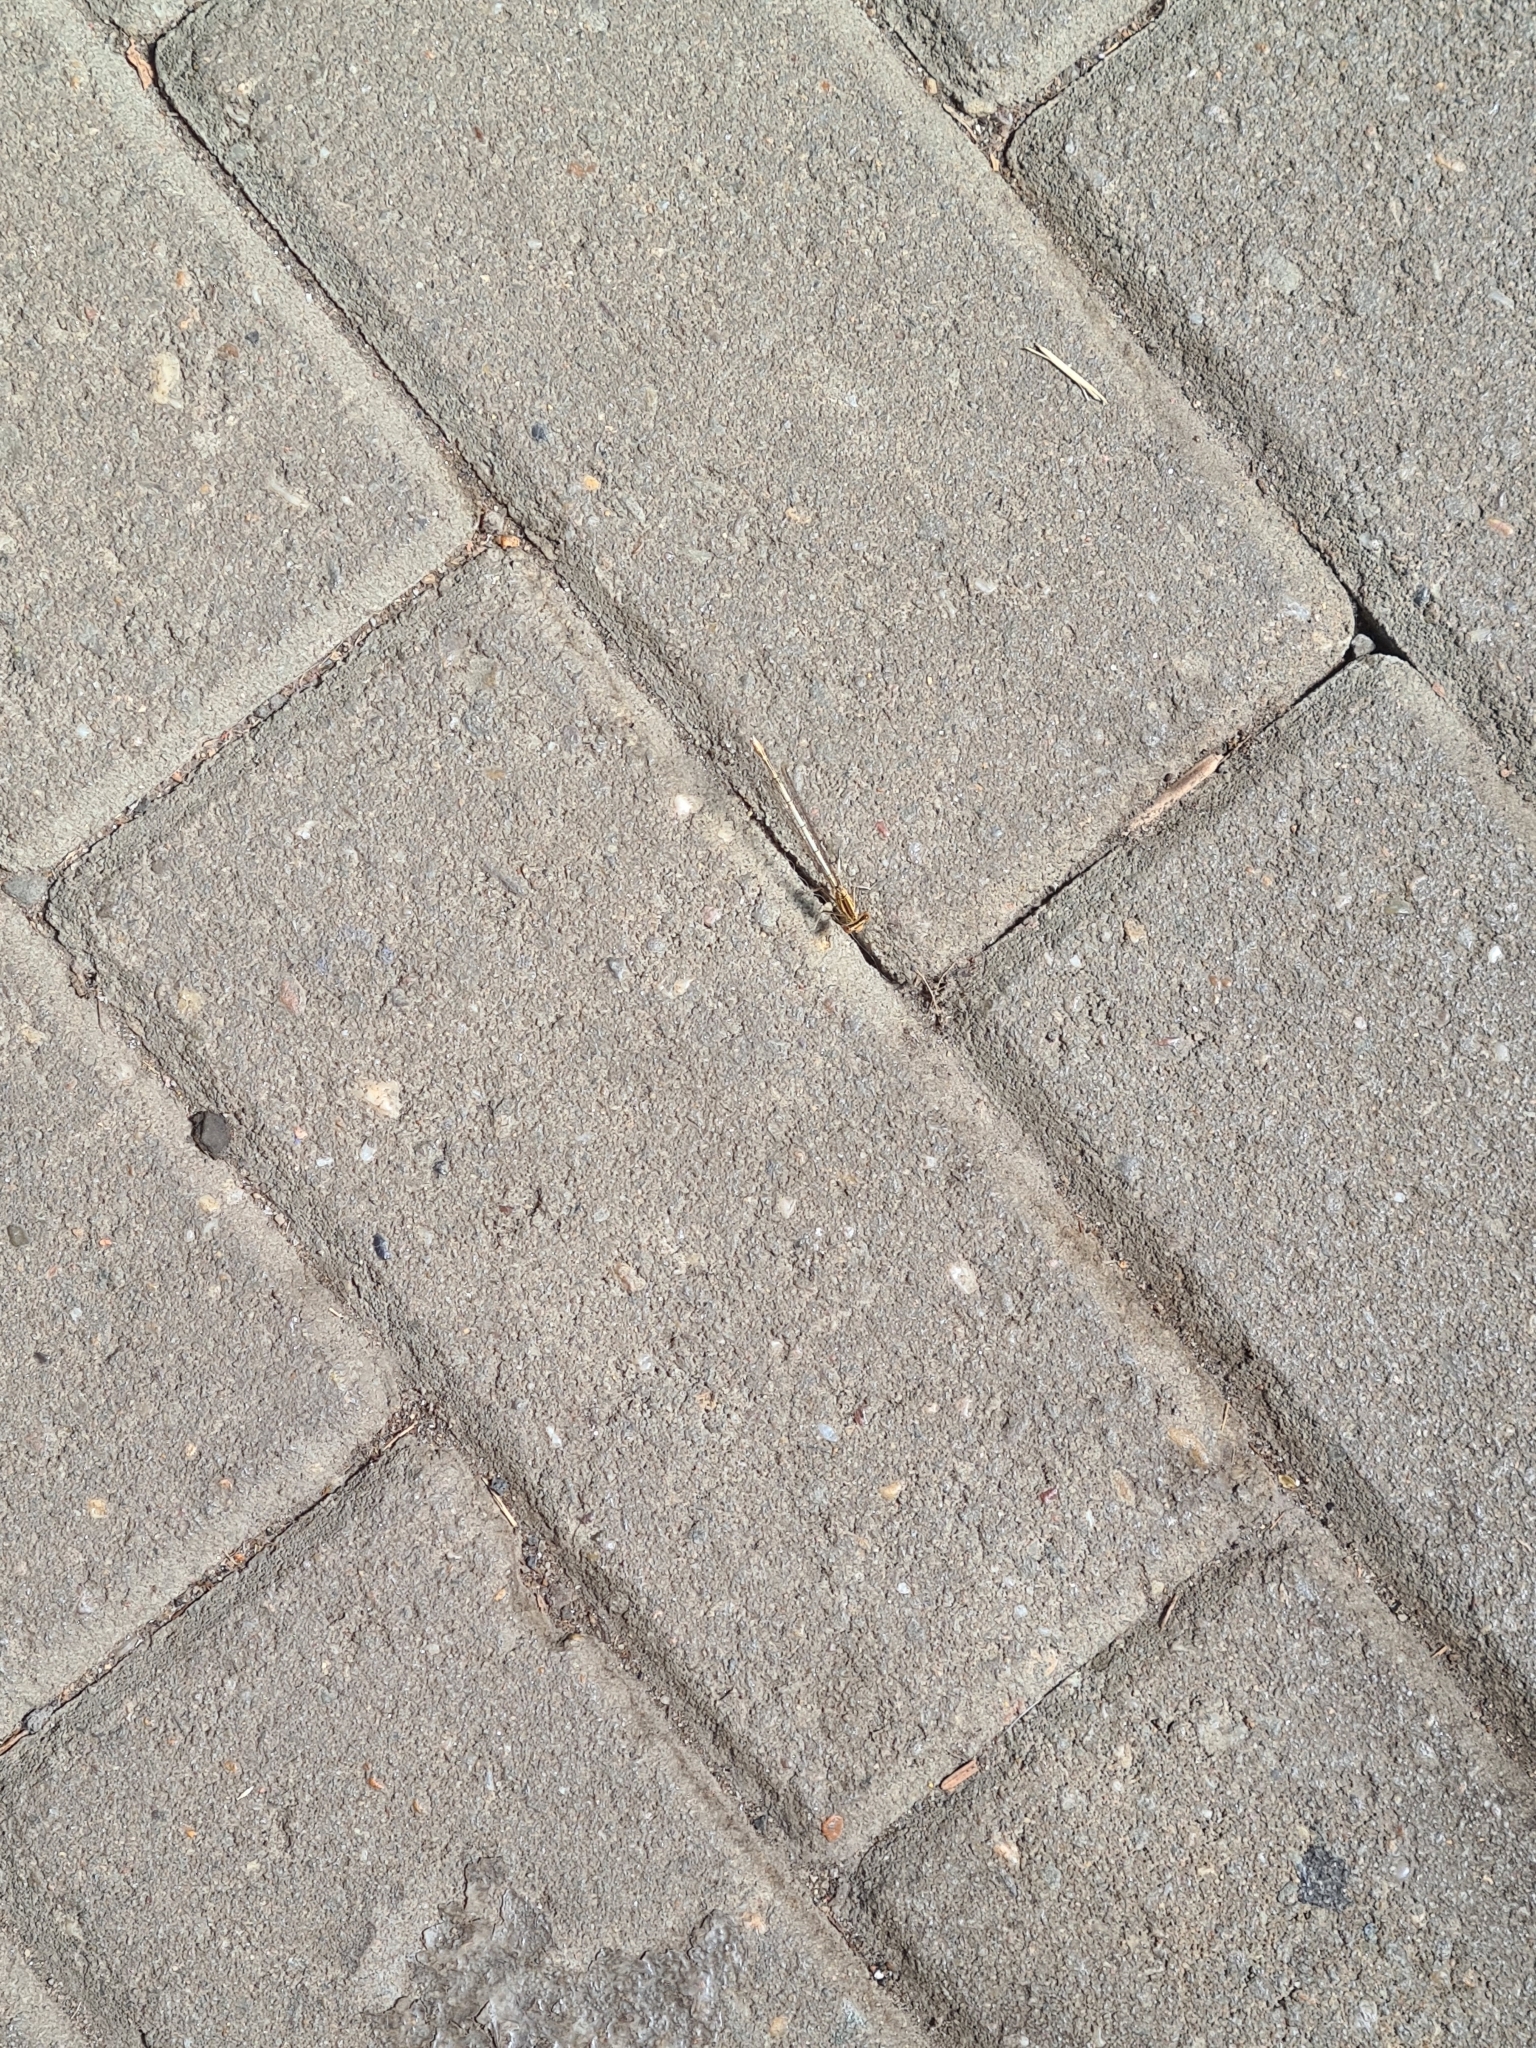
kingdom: Animalia
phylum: Arthropoda
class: Insecta
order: Odonata
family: Platycnemididae
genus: Platycnemis
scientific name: Platycnemis pennipes
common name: White-legged damselfly
